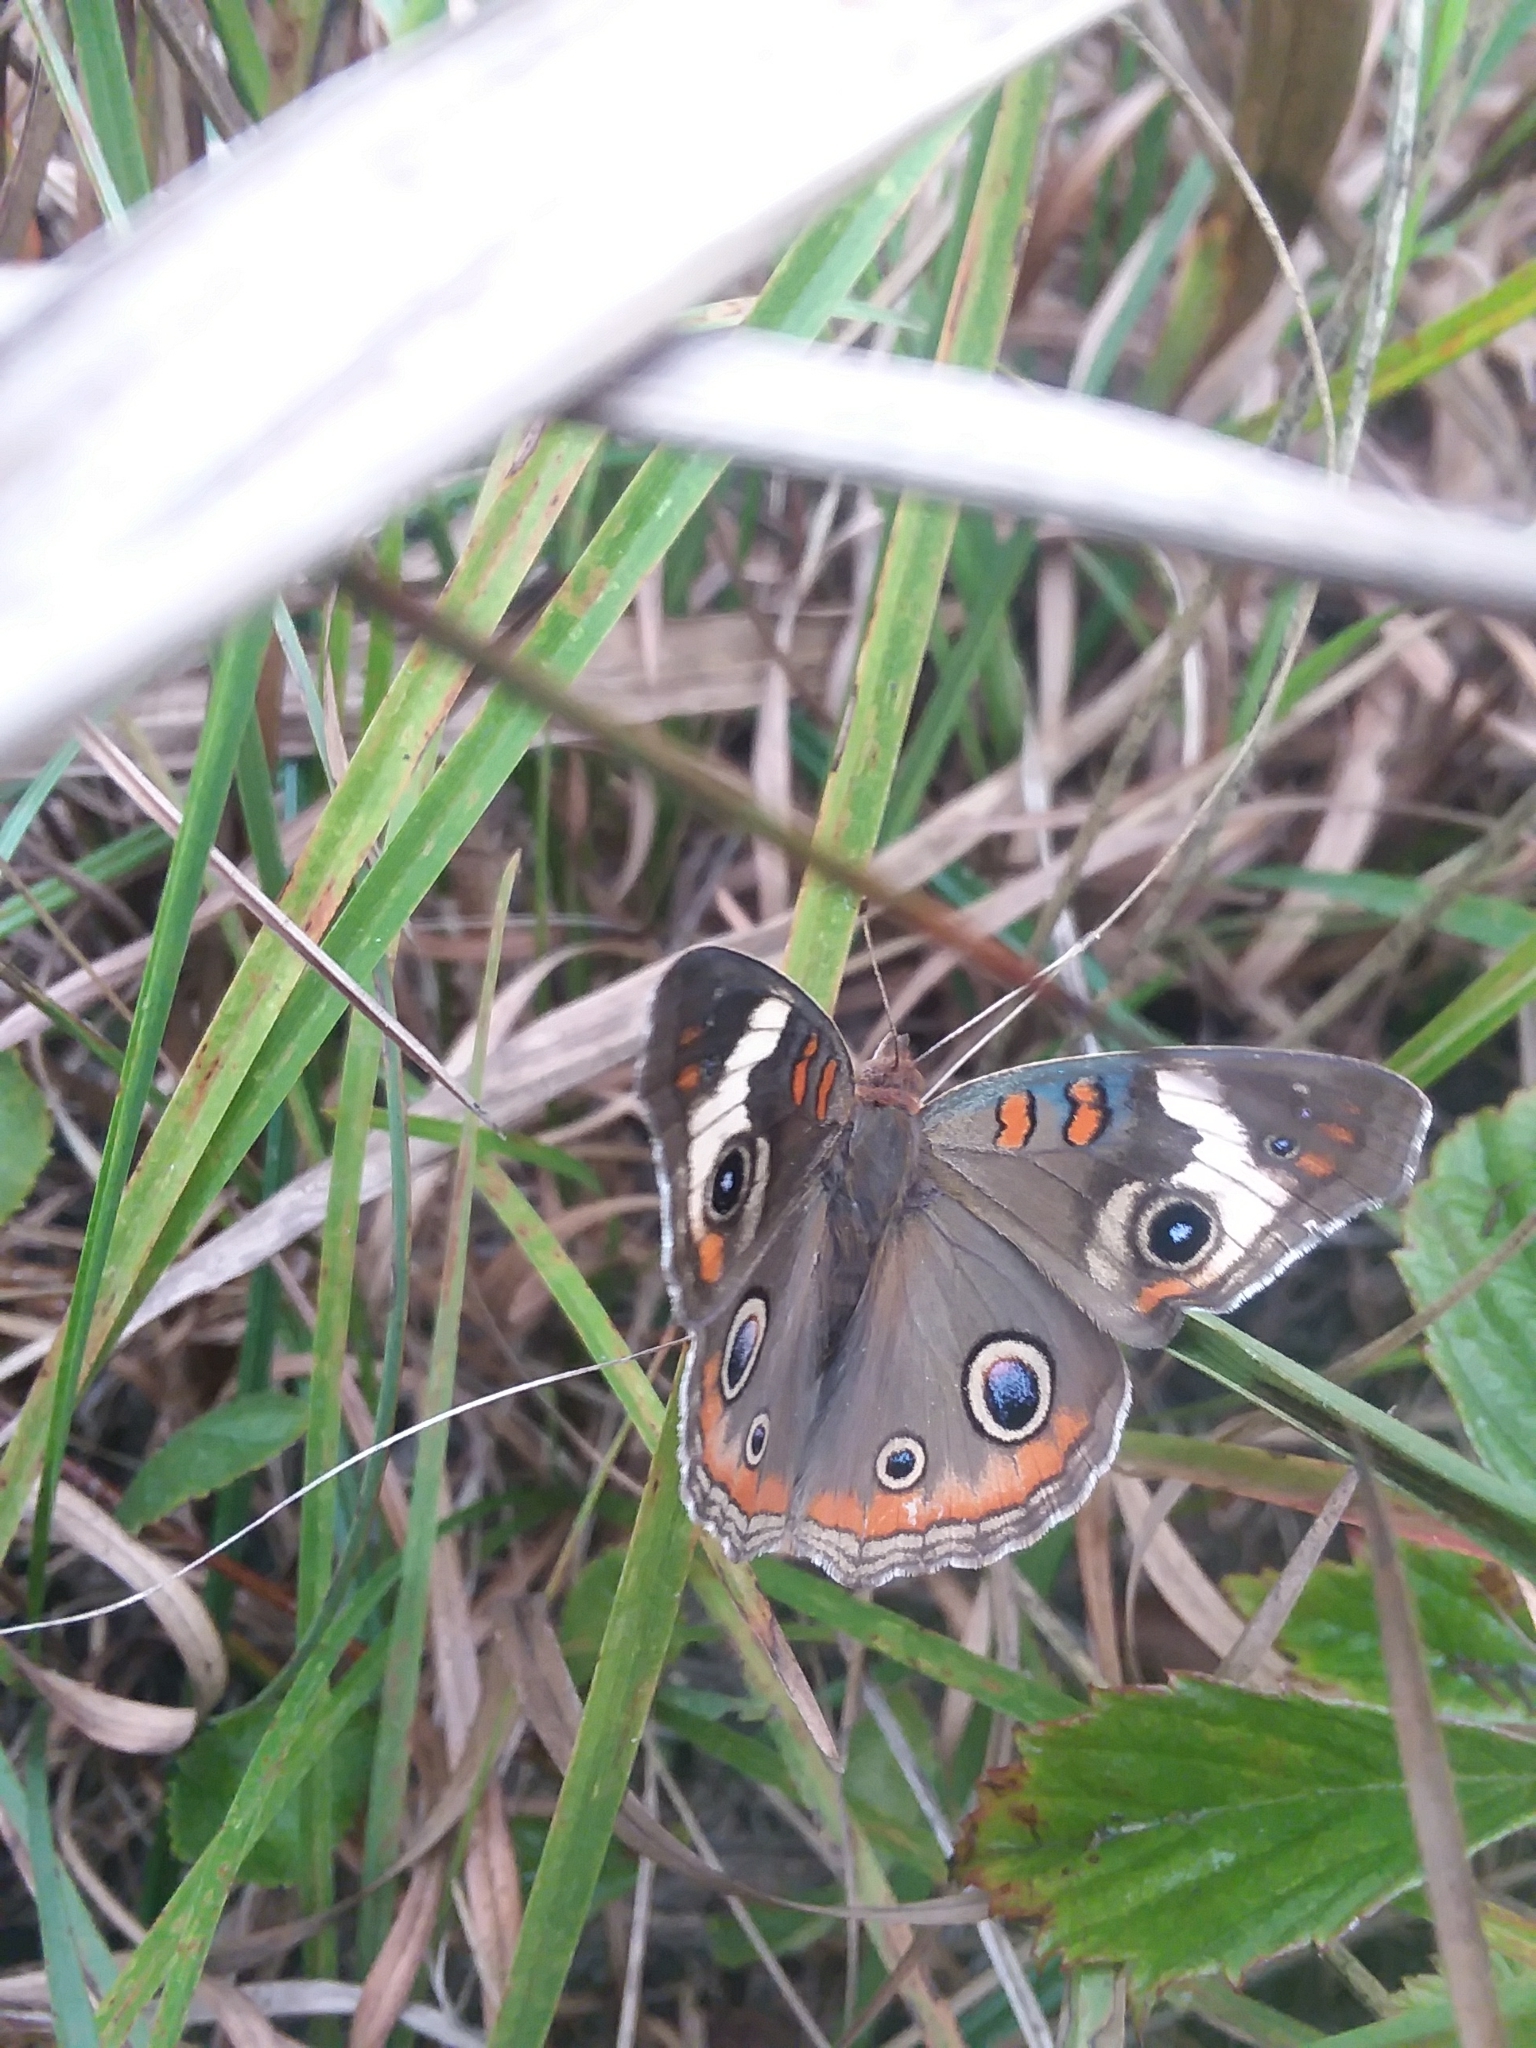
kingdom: Animalia
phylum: Arthropoda
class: Insecta
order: Lepidoptera
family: Nymphalidae
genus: Junonia
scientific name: Junonia coenia
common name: Common buckeye
